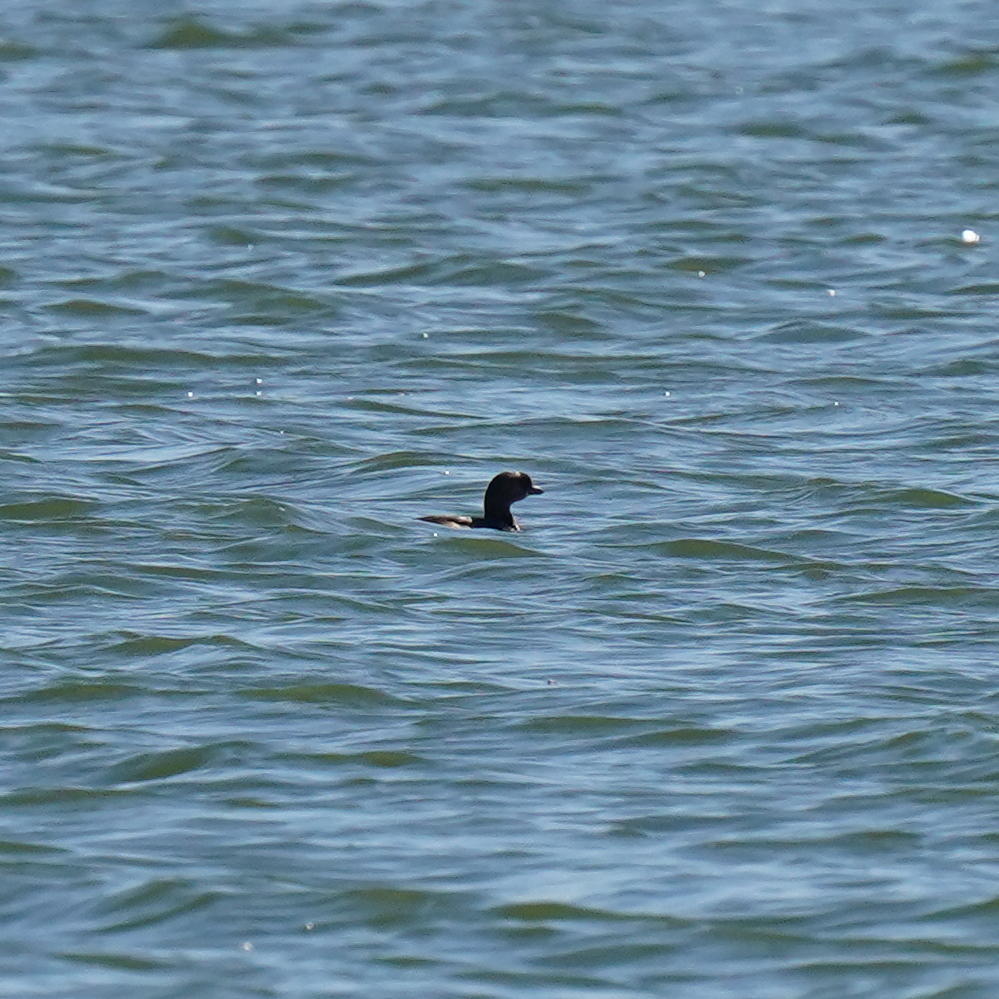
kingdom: Animalia
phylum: Chordata
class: Aves
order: Podicipediformes
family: Podicipedidae
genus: Podilymbus
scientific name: Podilymbus podiceps
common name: Pied-billed grebe
